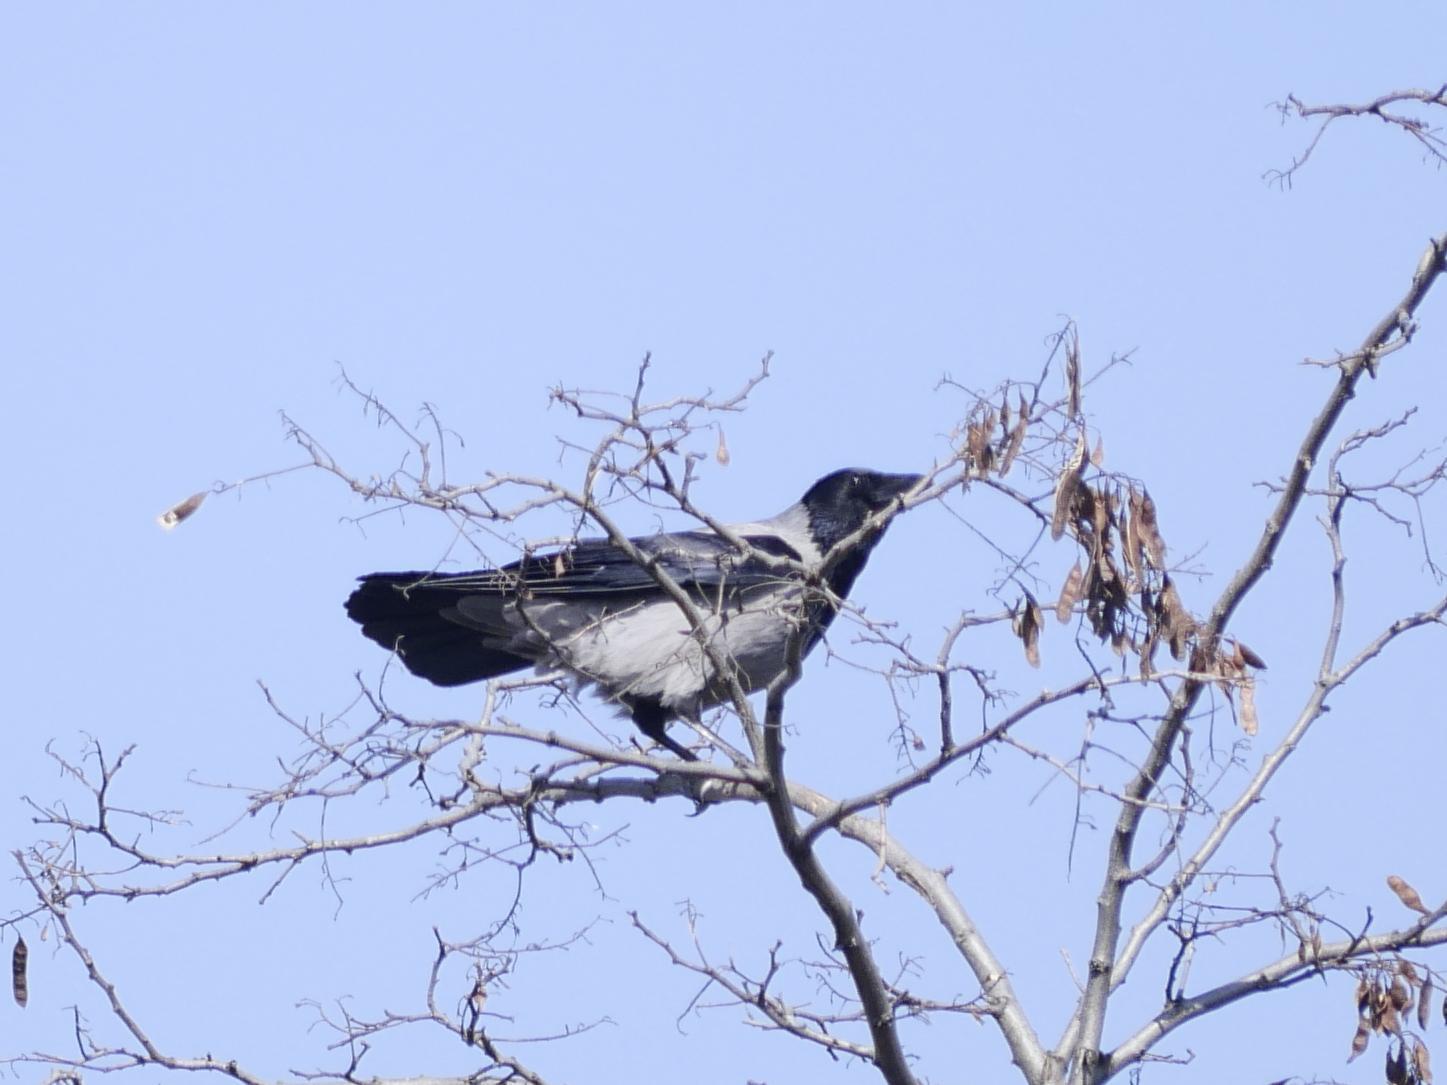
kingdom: Animalia
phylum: Chordata
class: Aves
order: Passeriformes
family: Corvidae
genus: Corvus
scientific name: Corvus cornix
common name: Hooded crow
